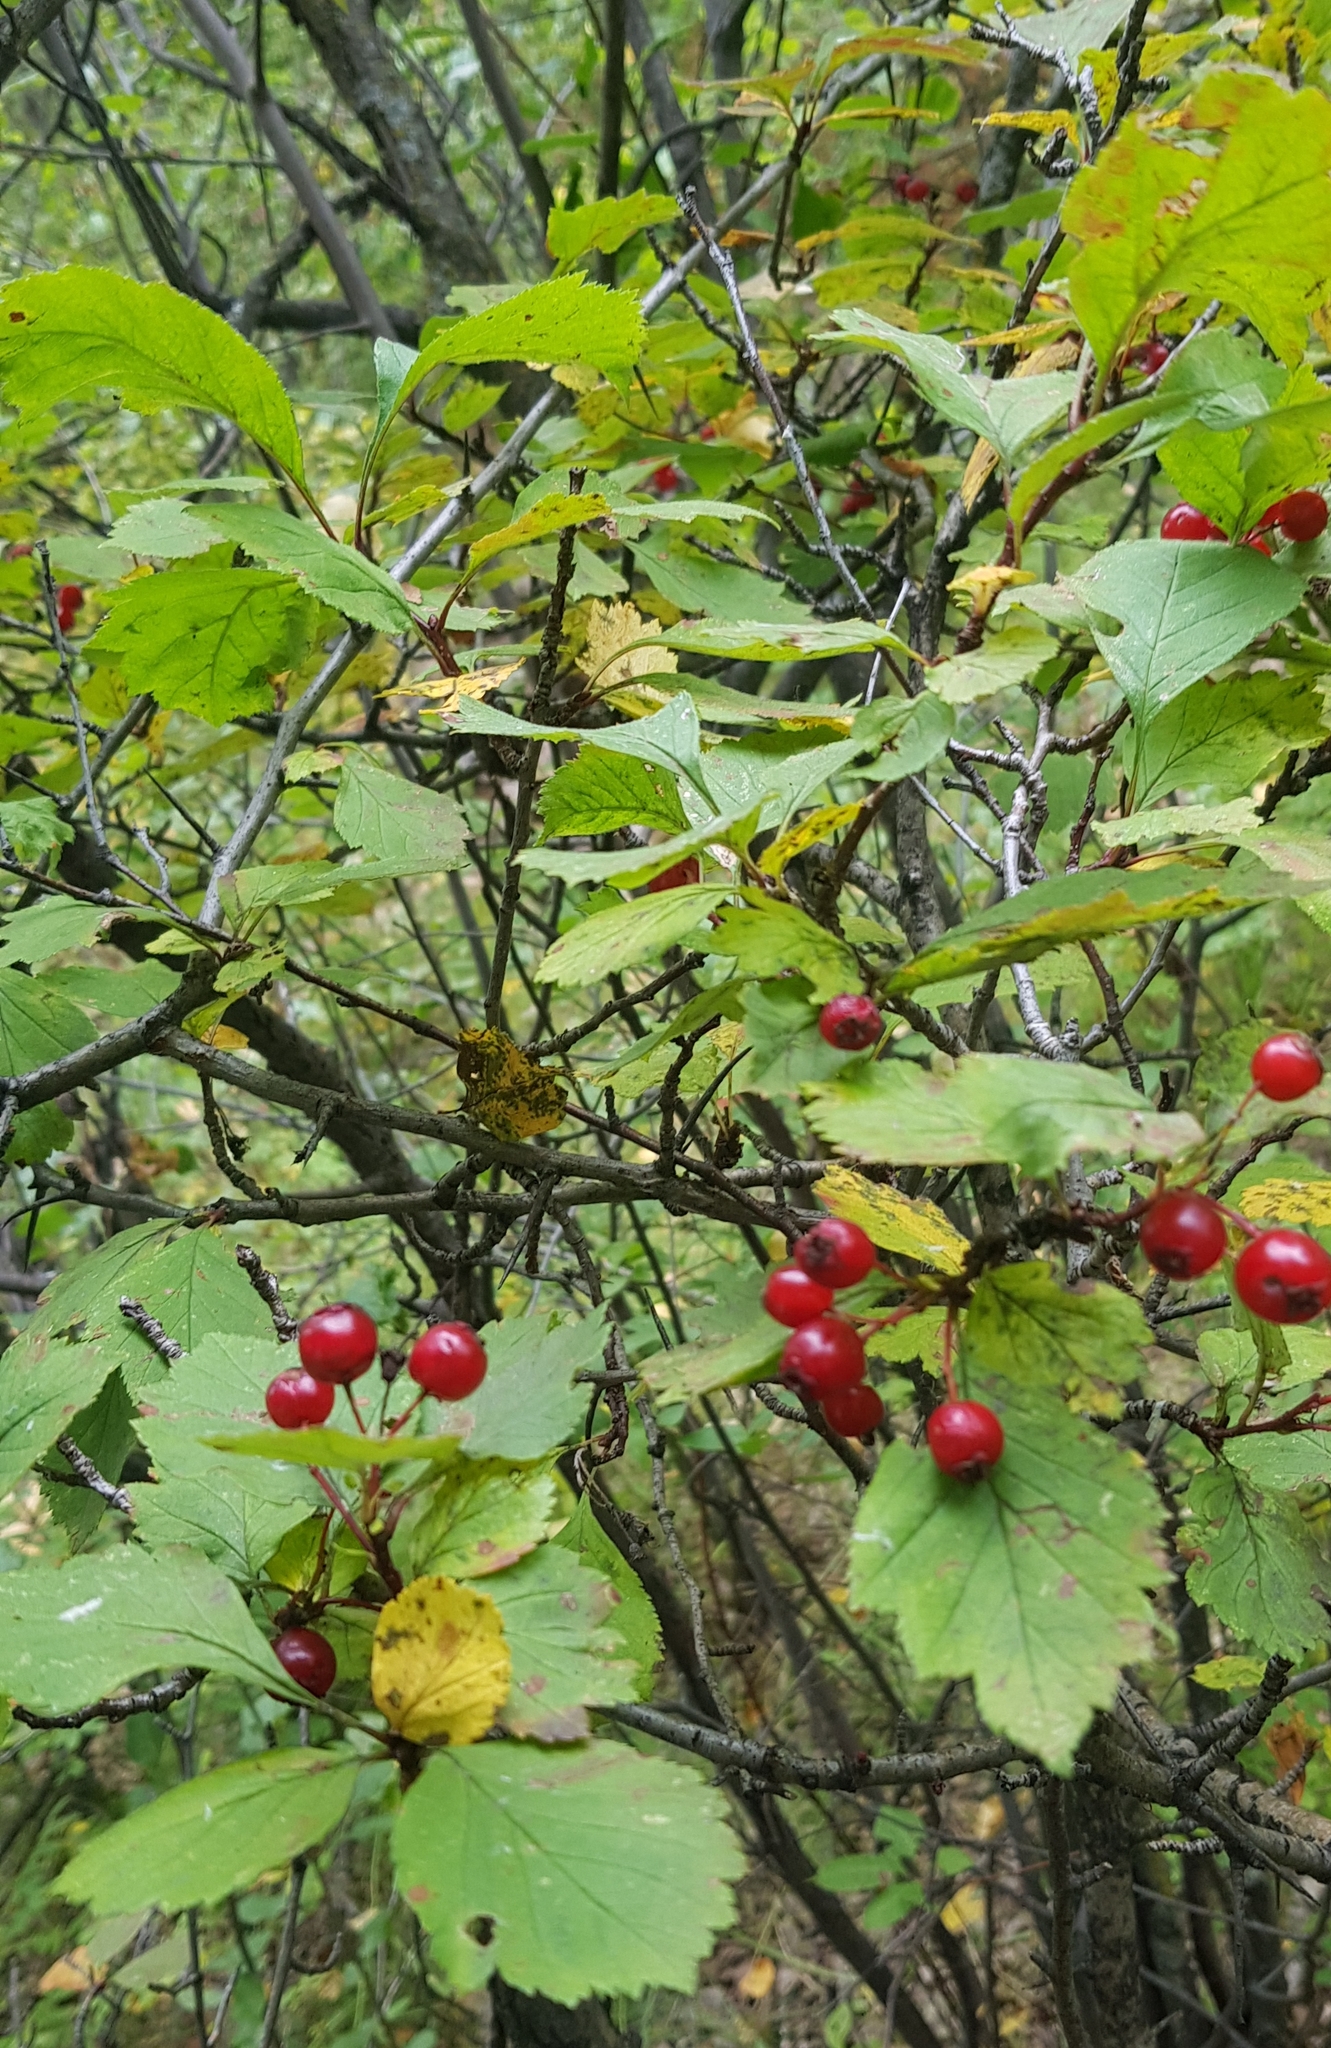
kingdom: Plantae
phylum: Tracheophyta
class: Magnoliopsida
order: Rosales
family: Rosaceae
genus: Crataegus
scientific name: Crataegus sanguinea
